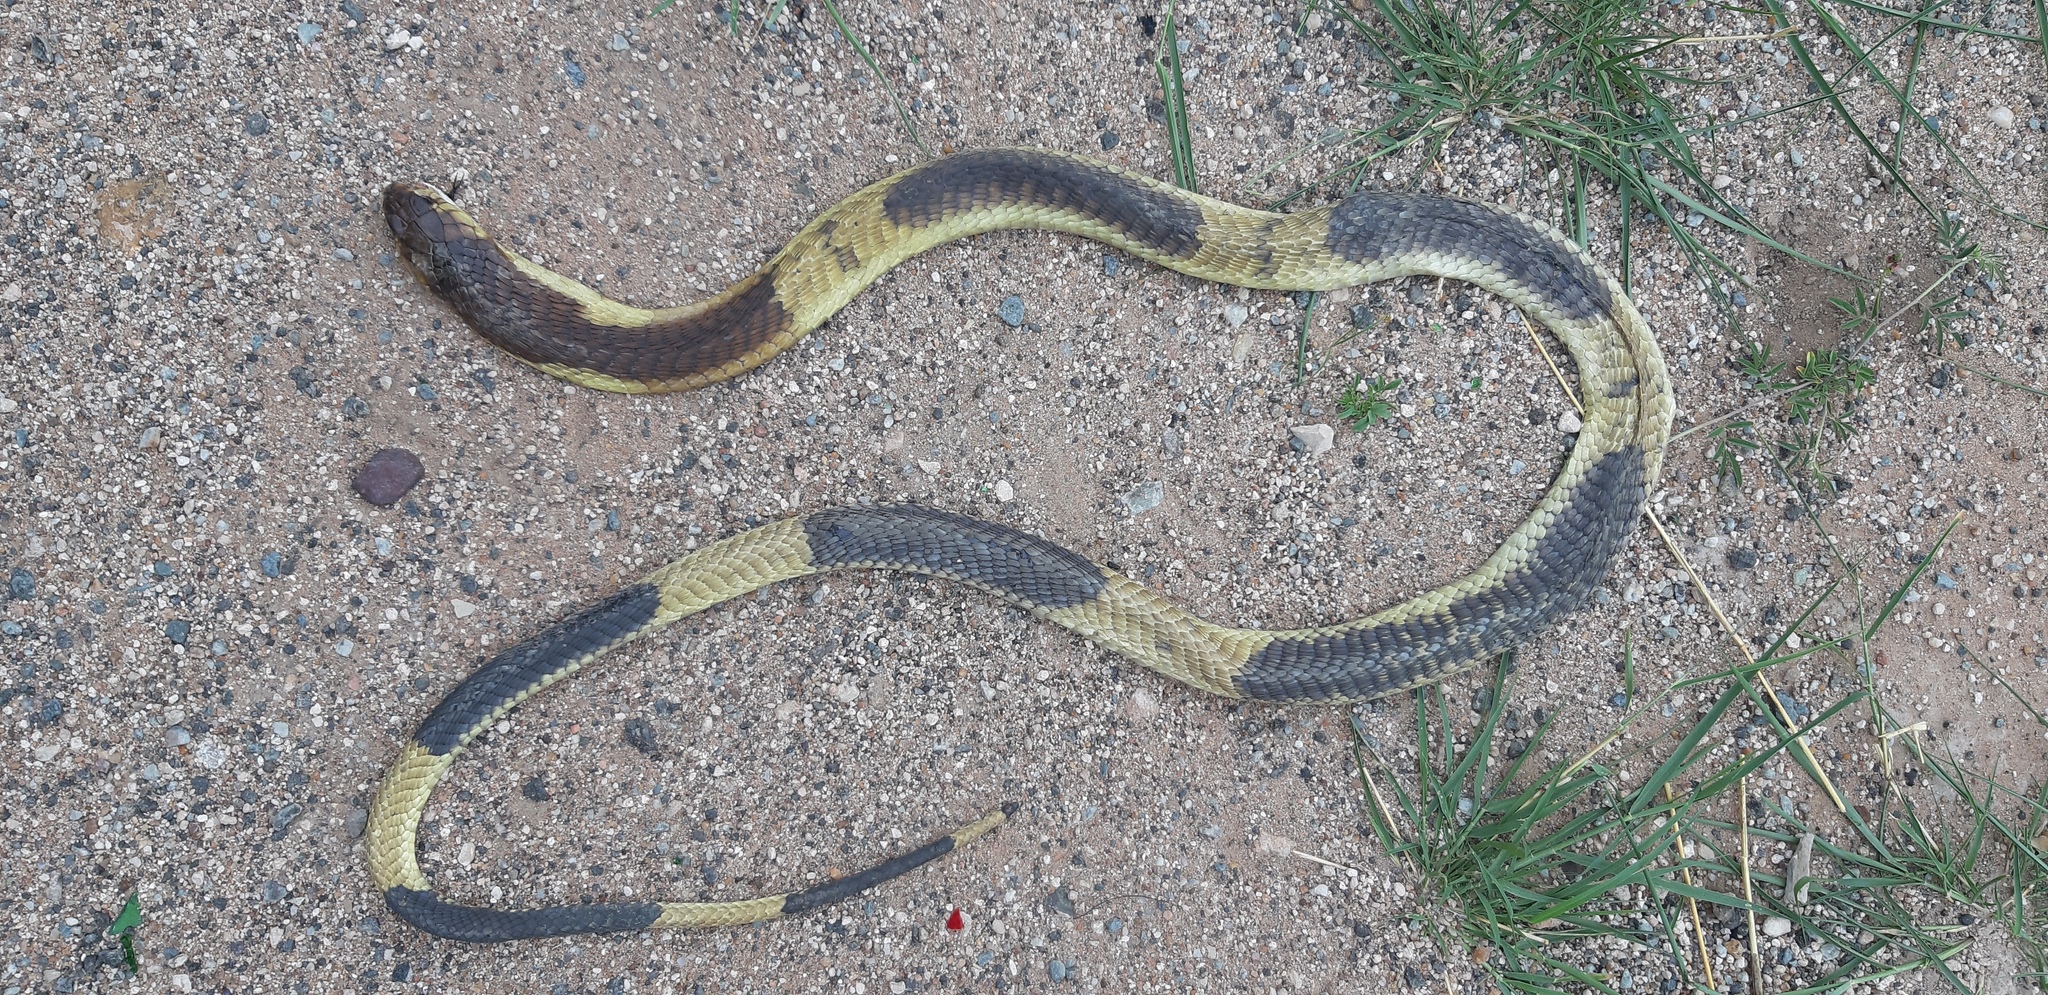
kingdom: Animalia
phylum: Chordata
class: Squamata
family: Elapidae
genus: Naja
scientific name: Naja annulifera
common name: Snouted cobra
